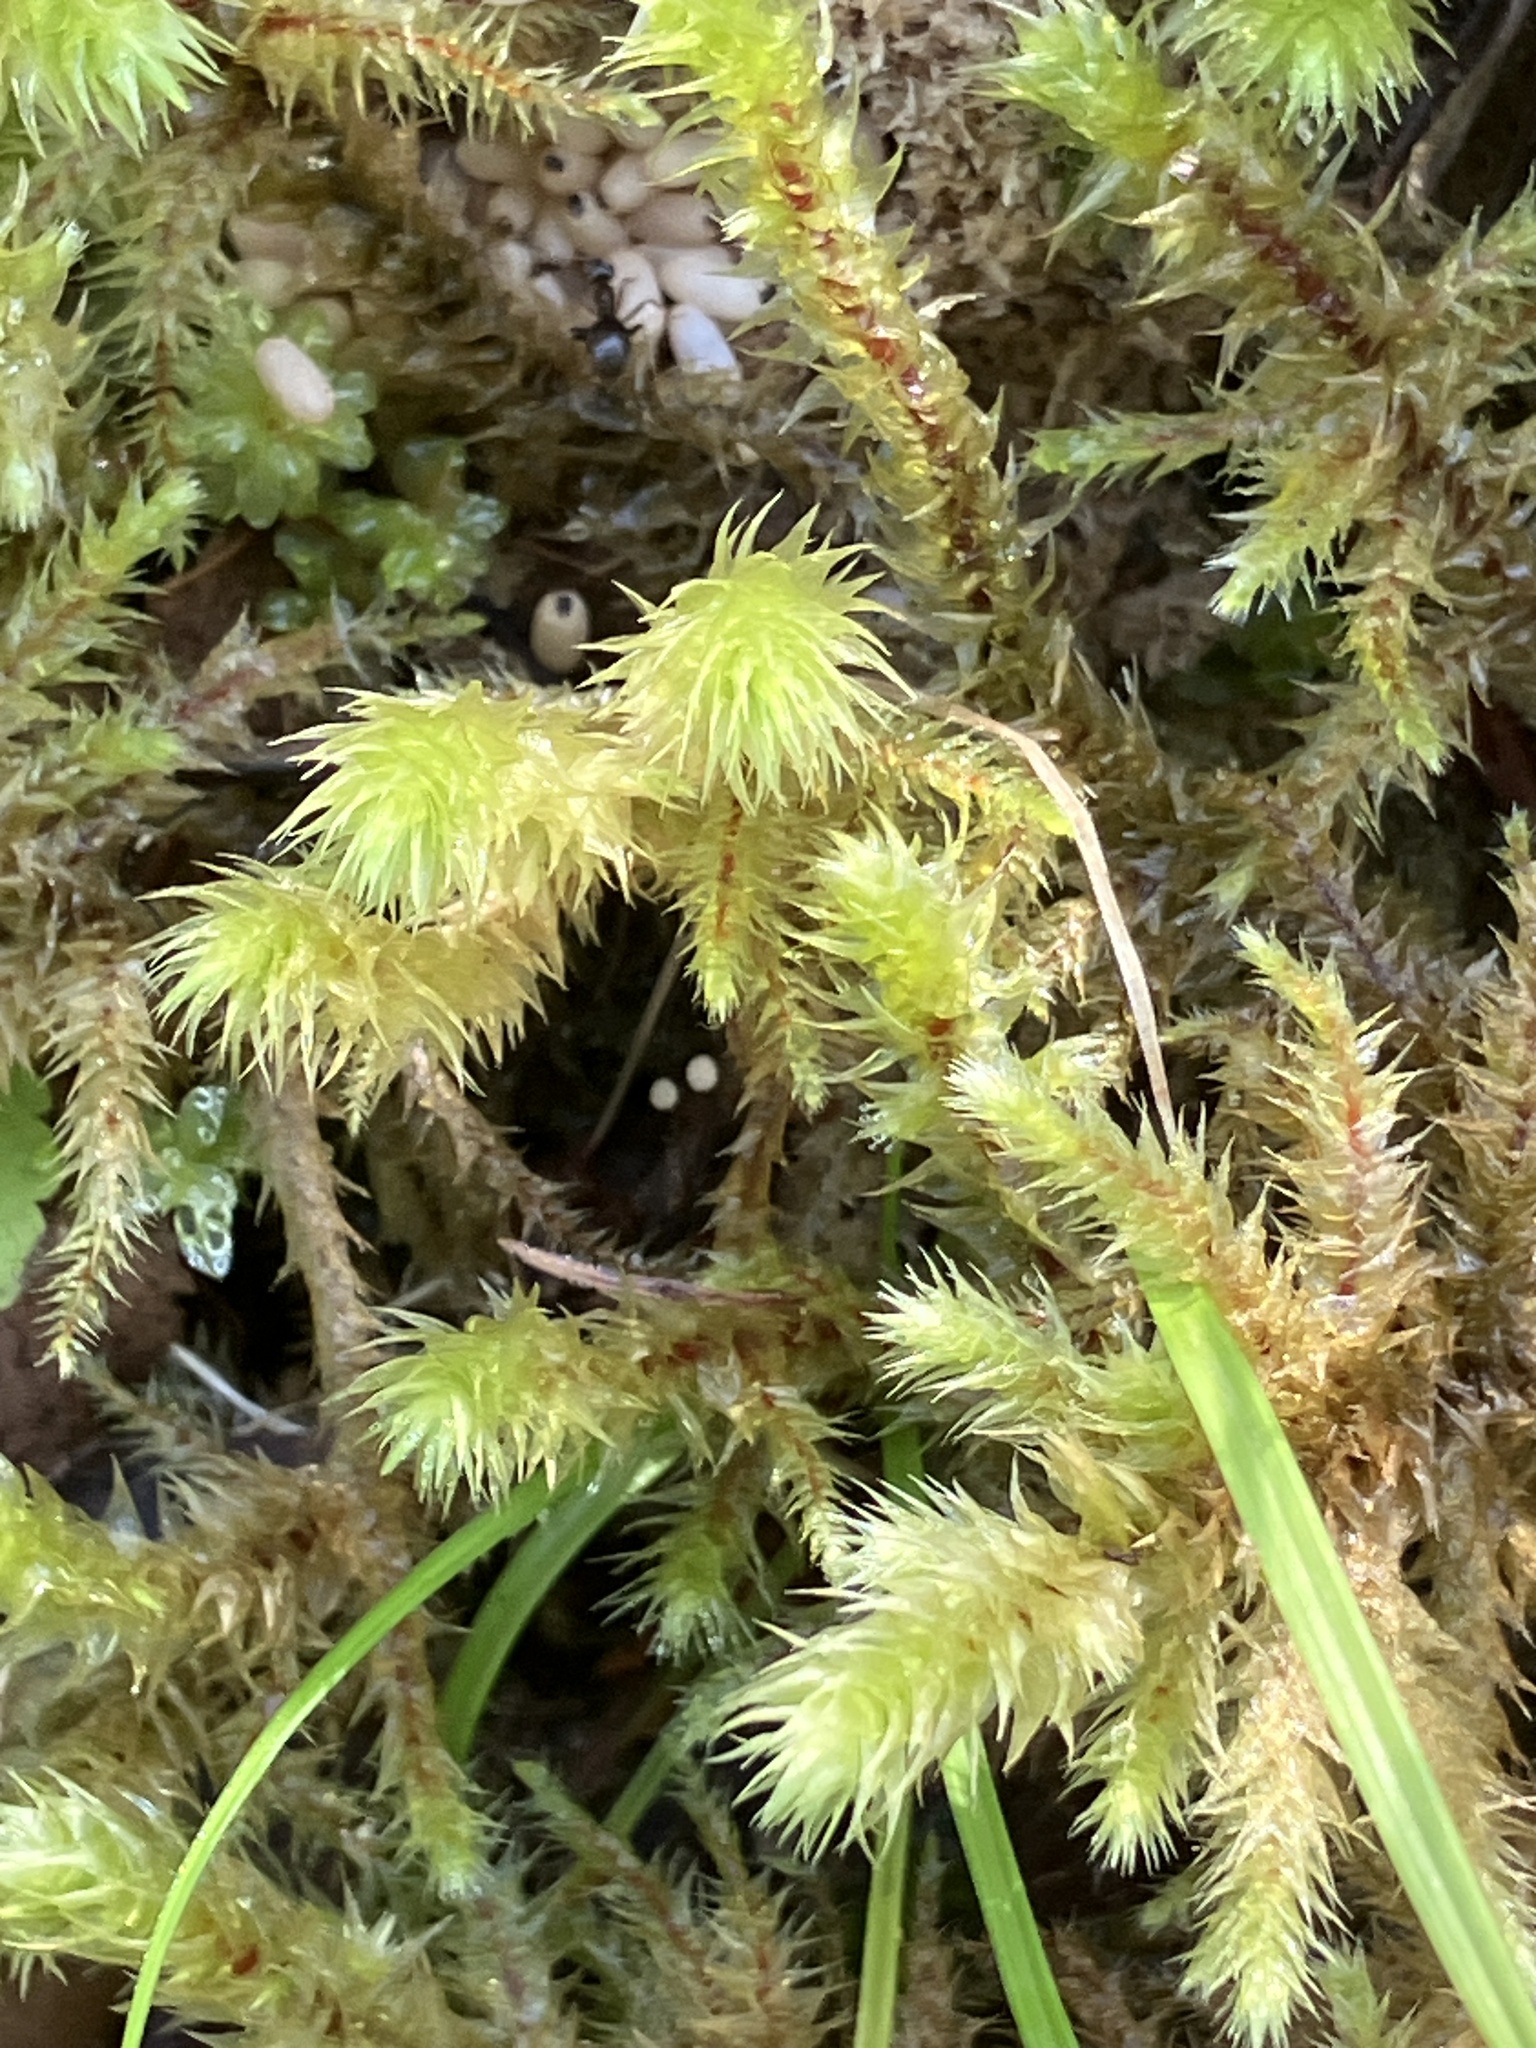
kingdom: Plantae
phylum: Bryophyta
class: Bryopsida
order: Hypnales
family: Hylocomiaceae
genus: Hylocomiadelphus
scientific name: Hylocomiadelphus triquetrus
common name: Rough goose neck moss
